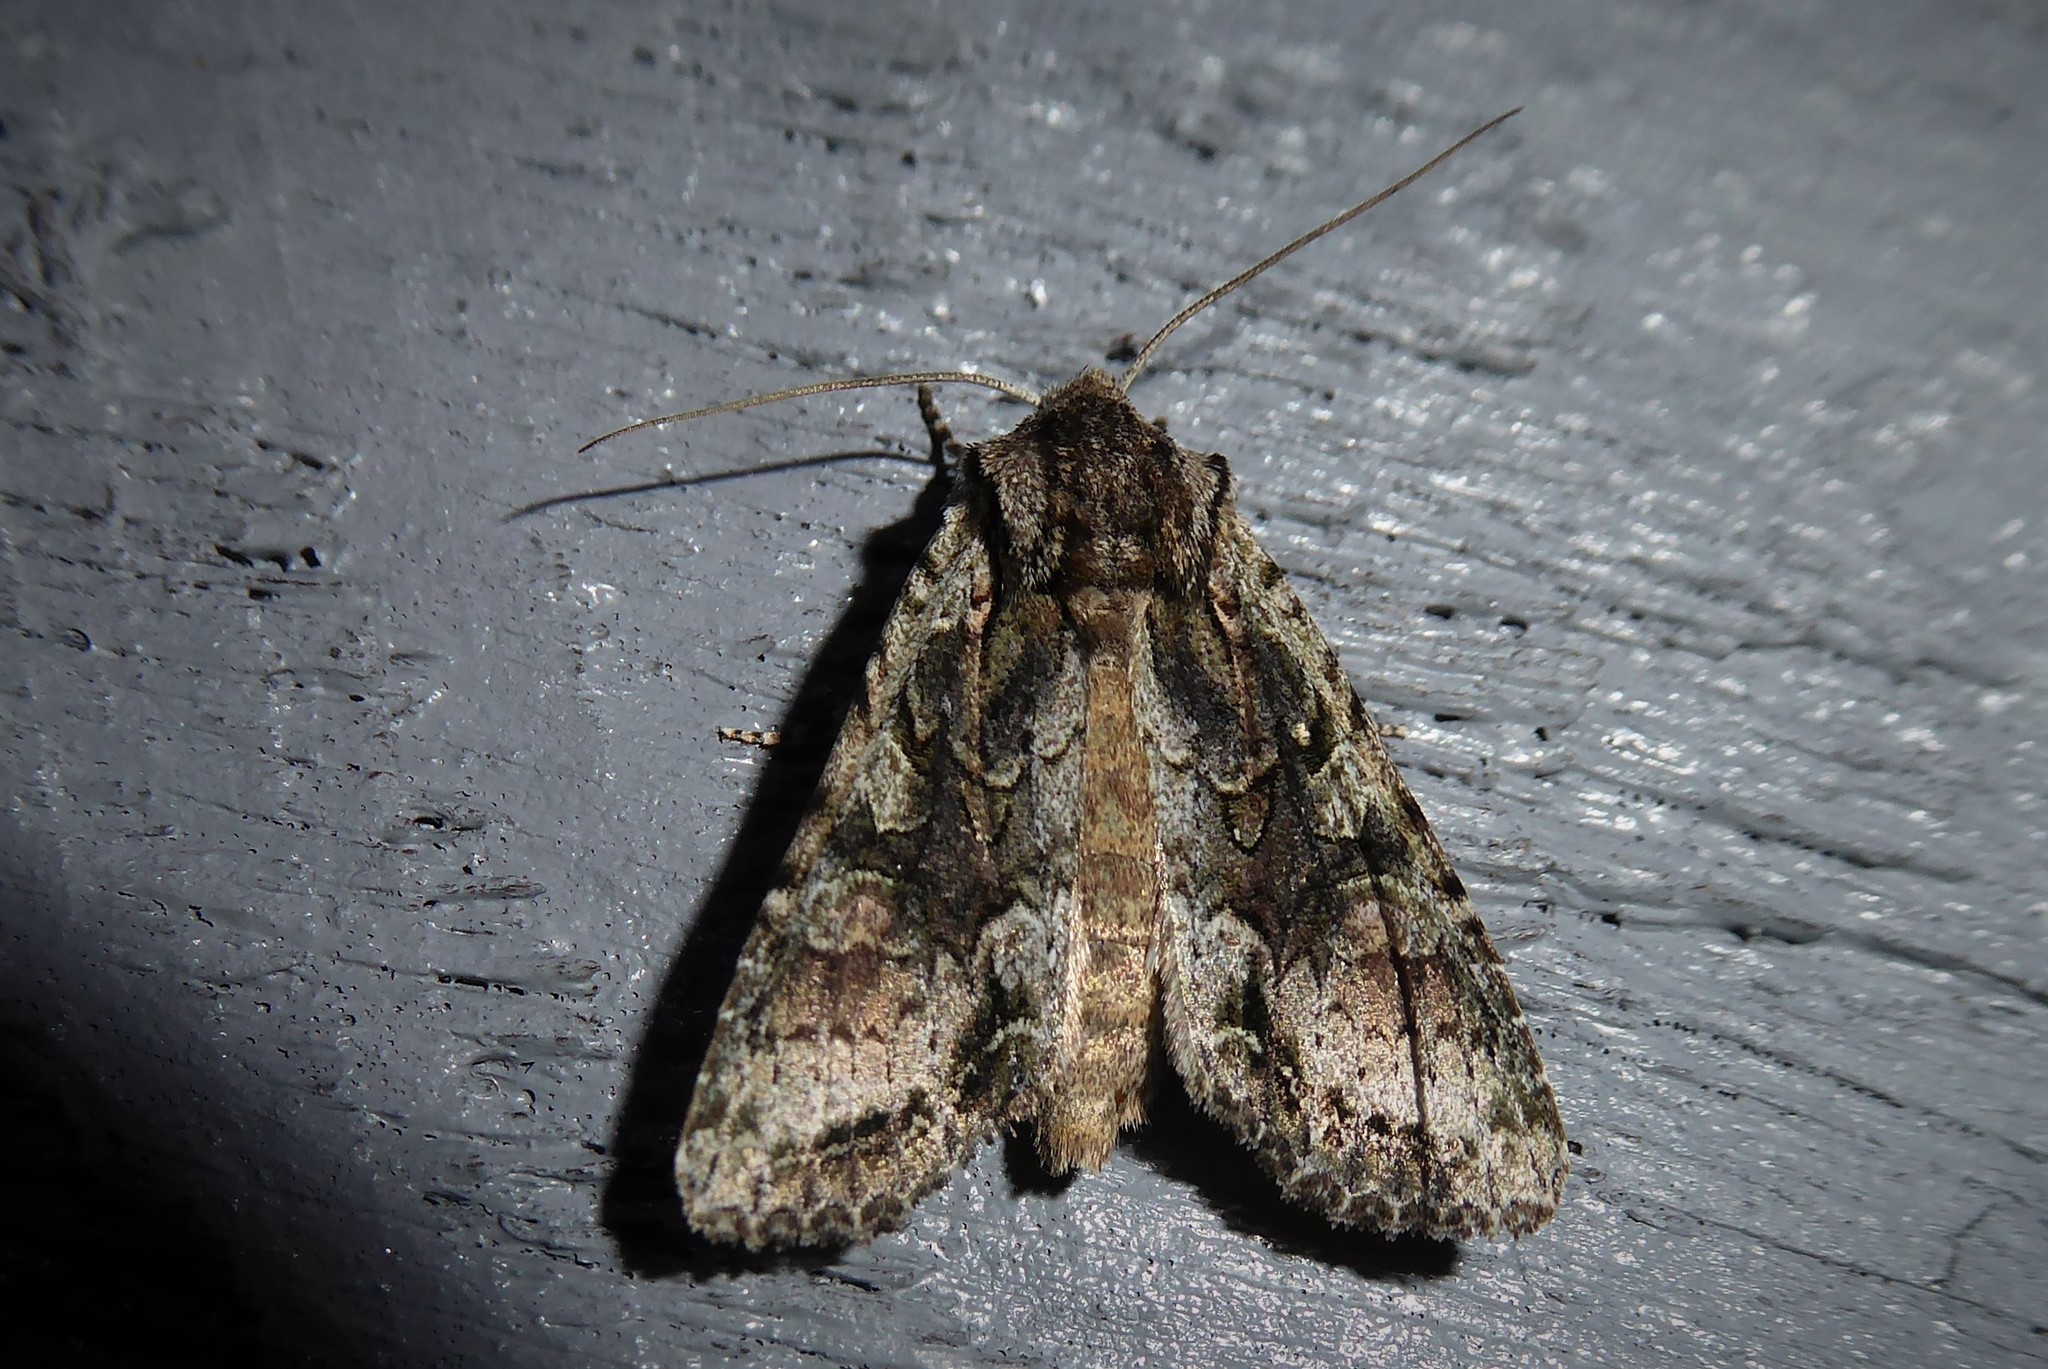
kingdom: Animalia
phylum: Arthropoda
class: Insecta
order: Lepidoptera
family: Noctuidae
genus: Ichneutica
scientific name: Ichneutica mutans
